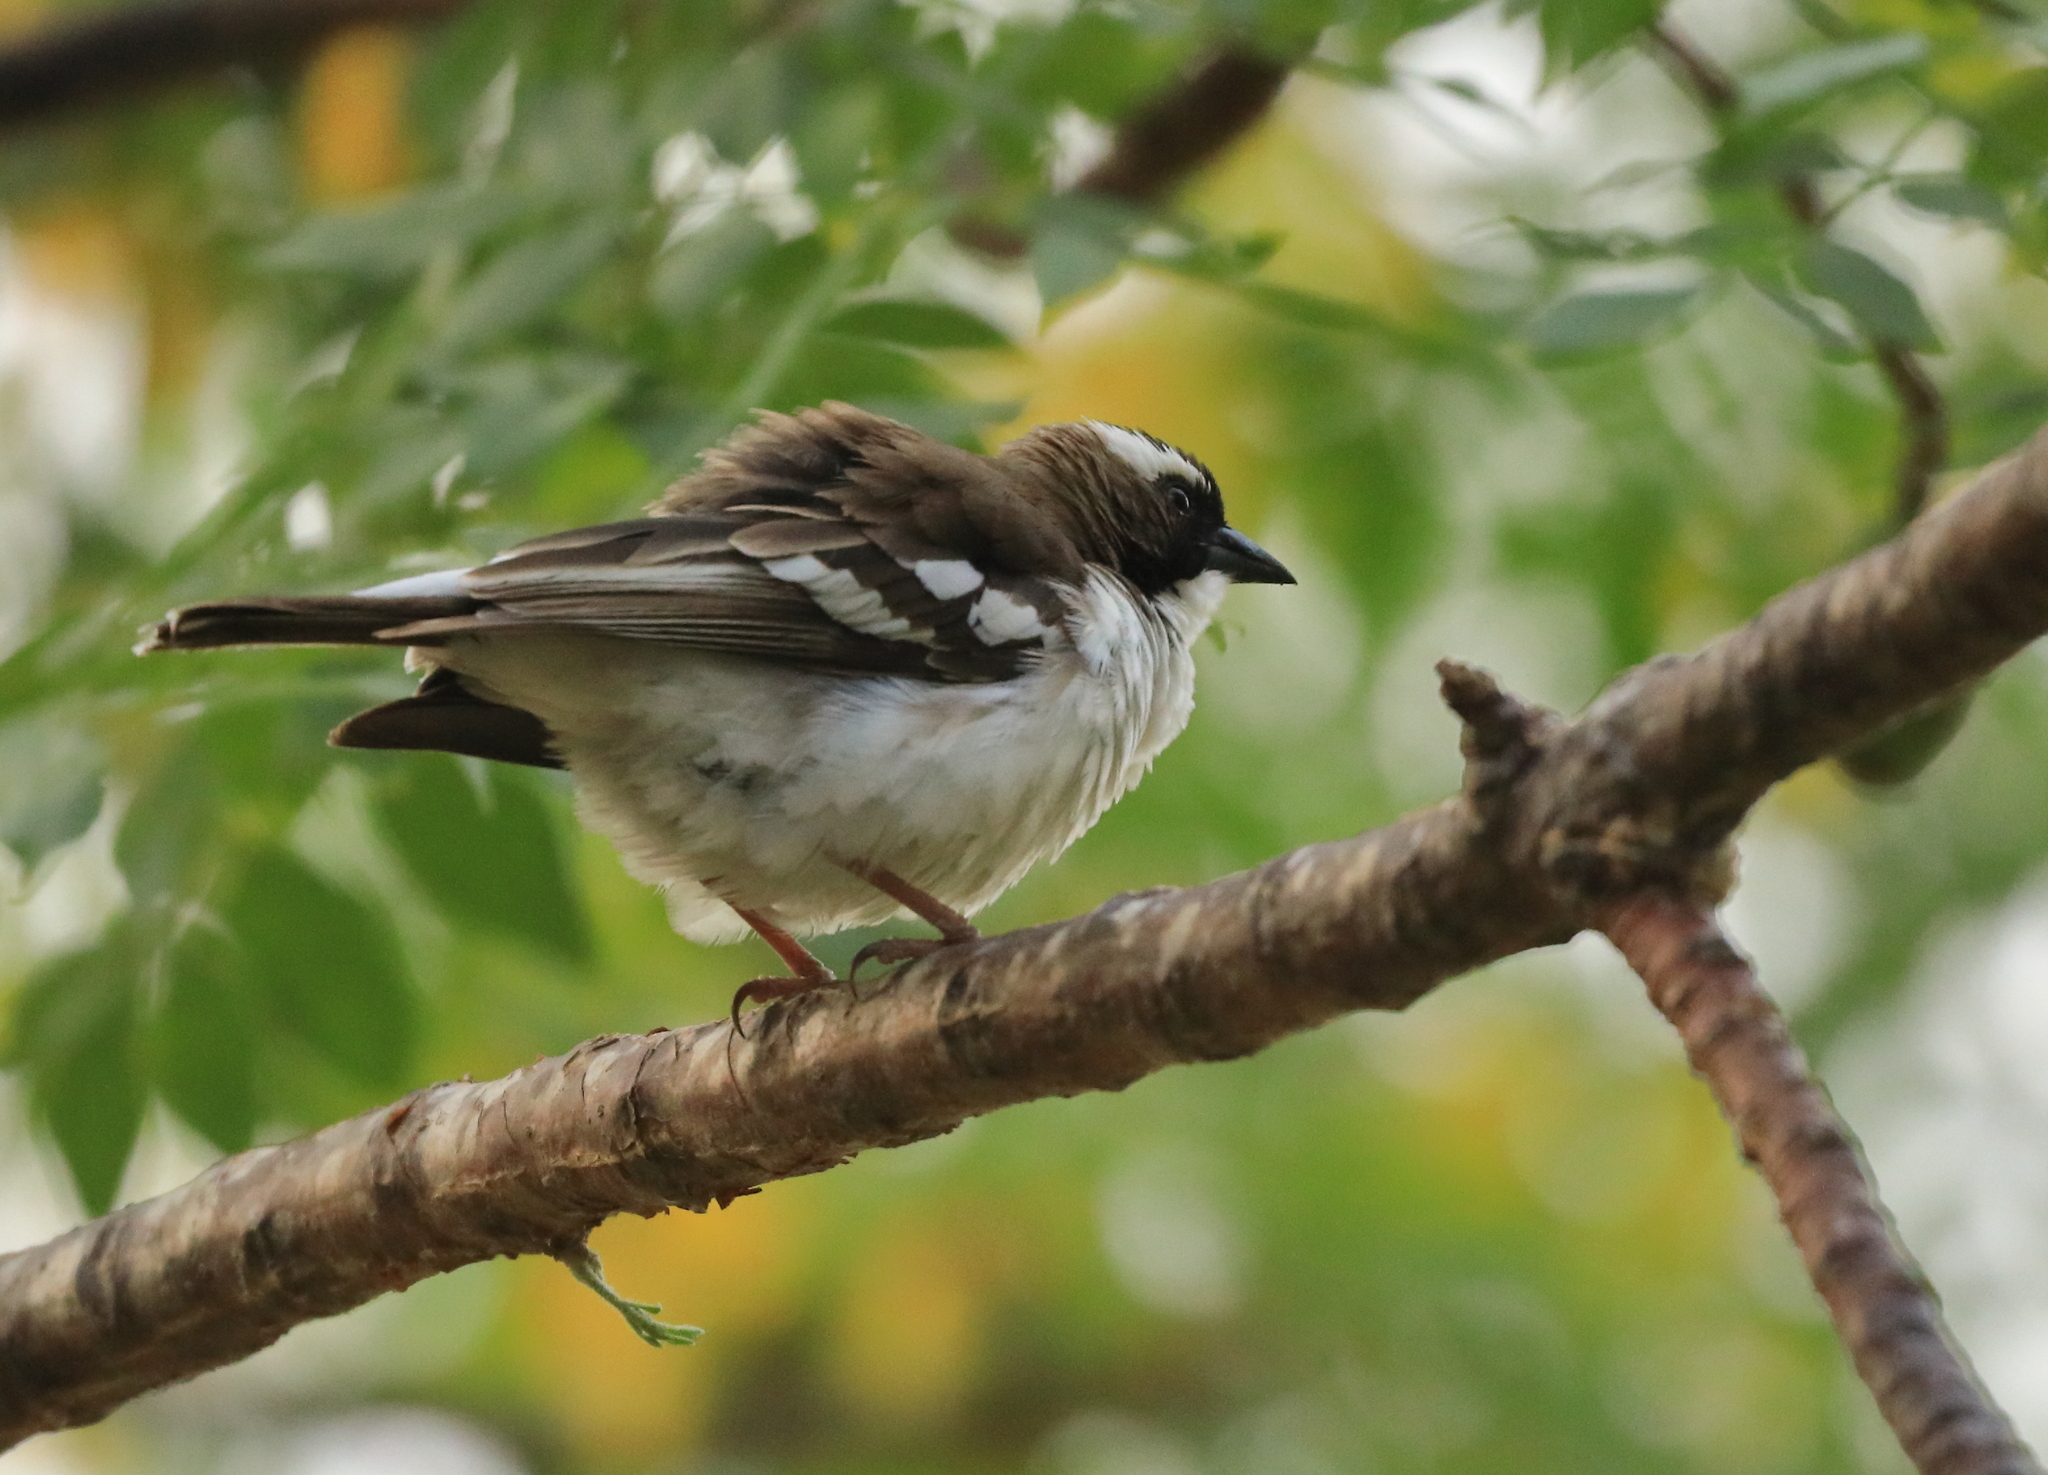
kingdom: Animalia
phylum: Chordata
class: Aves
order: Passeriformes
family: Passeridae
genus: Plocepasser
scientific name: Plocepasser mahali
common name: White-browed sparrow-weaver
